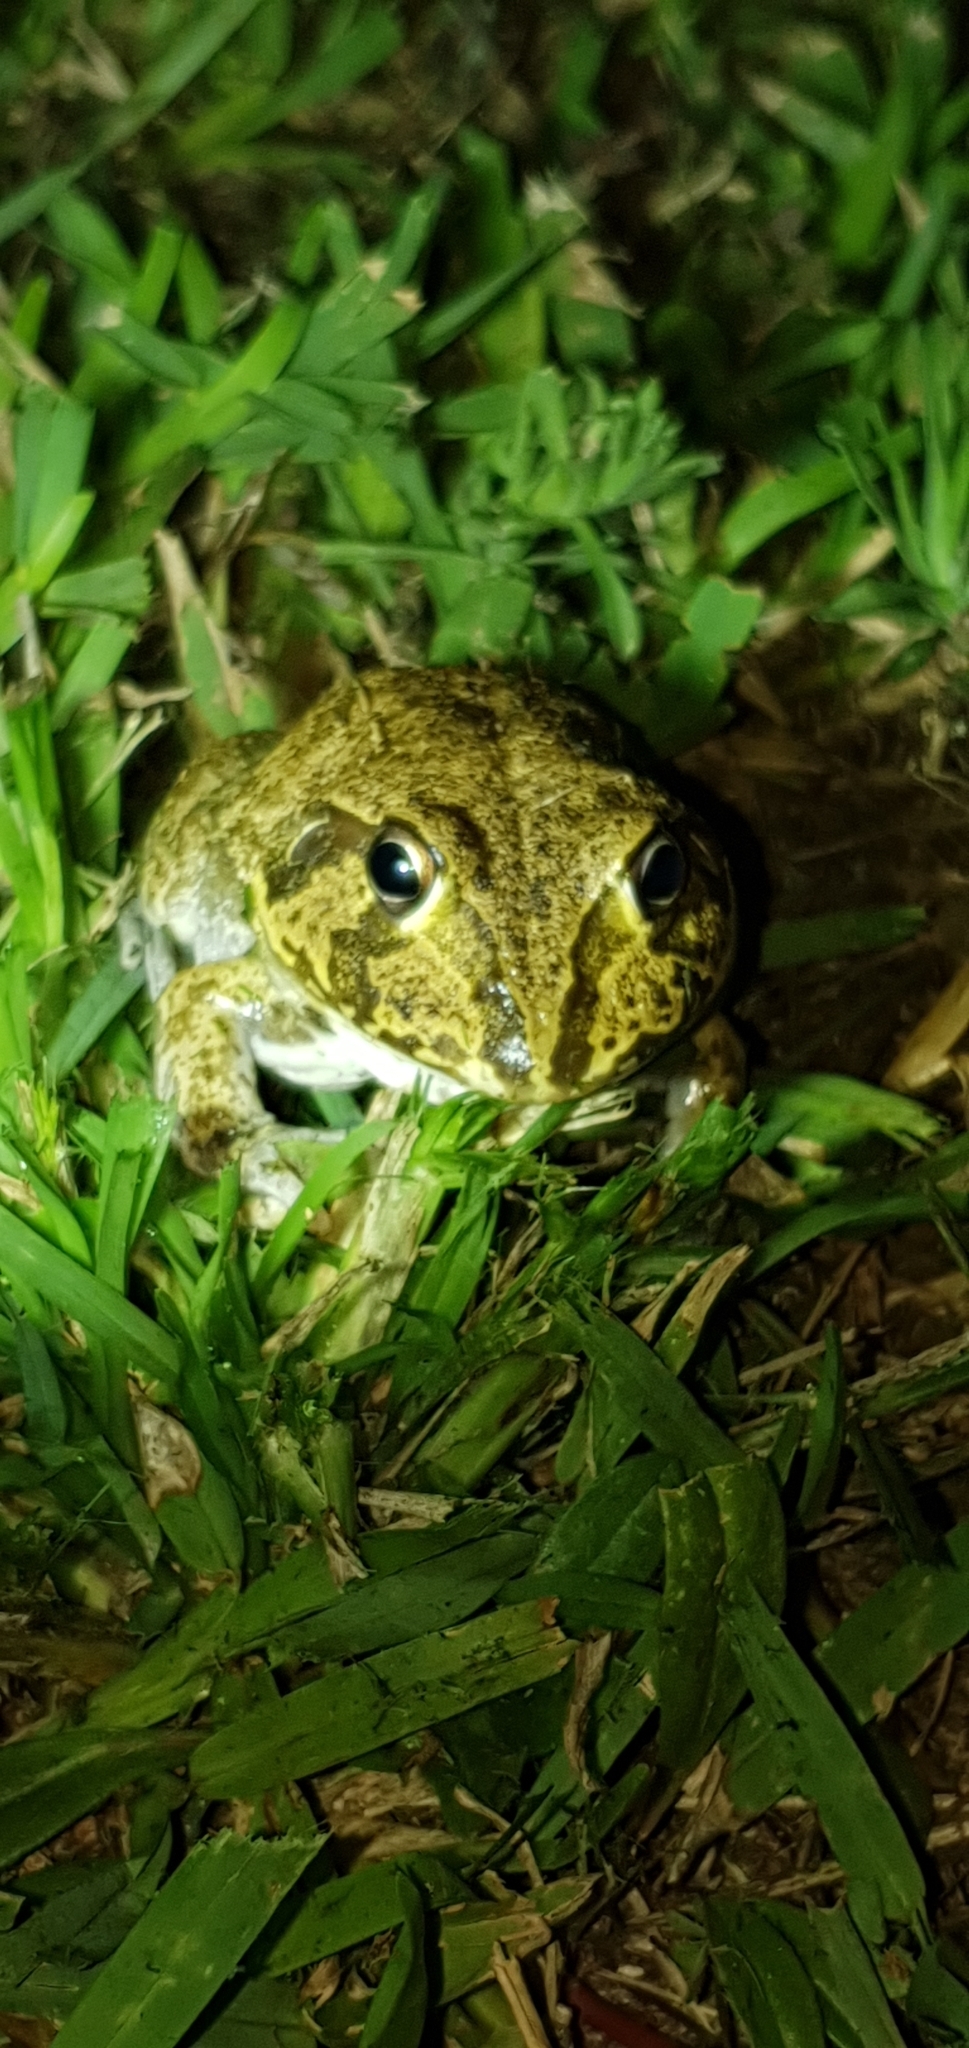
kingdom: Animalia
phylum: Chordata
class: Amphibia
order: Anura
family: Pelodryadidae
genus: Ranoidea
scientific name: Ranoidea novaehollandiae
